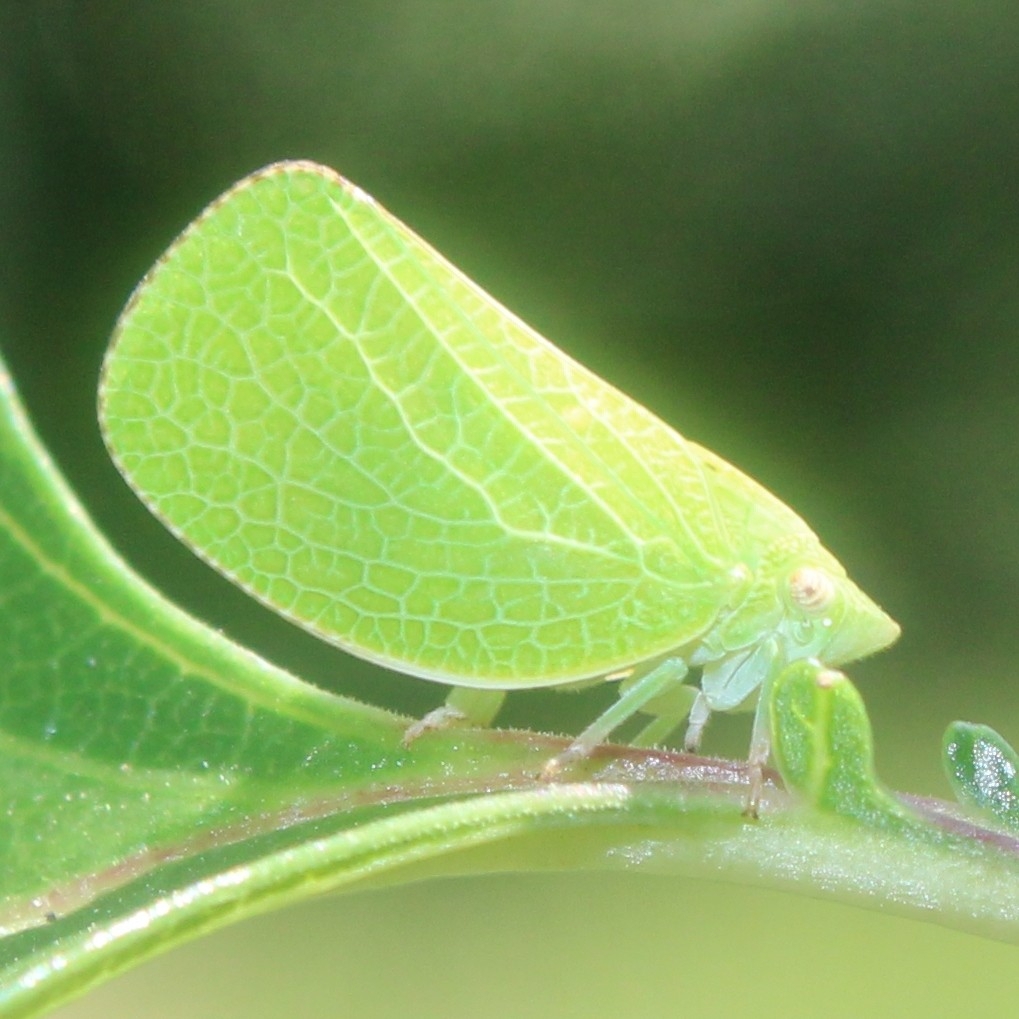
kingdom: Animalia
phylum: Arthropoda
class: Insecta
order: Hemiptera
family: Acanaloniidae
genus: Acanalonia
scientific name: Acanalonia conica
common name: Green cone-headed planthopper
